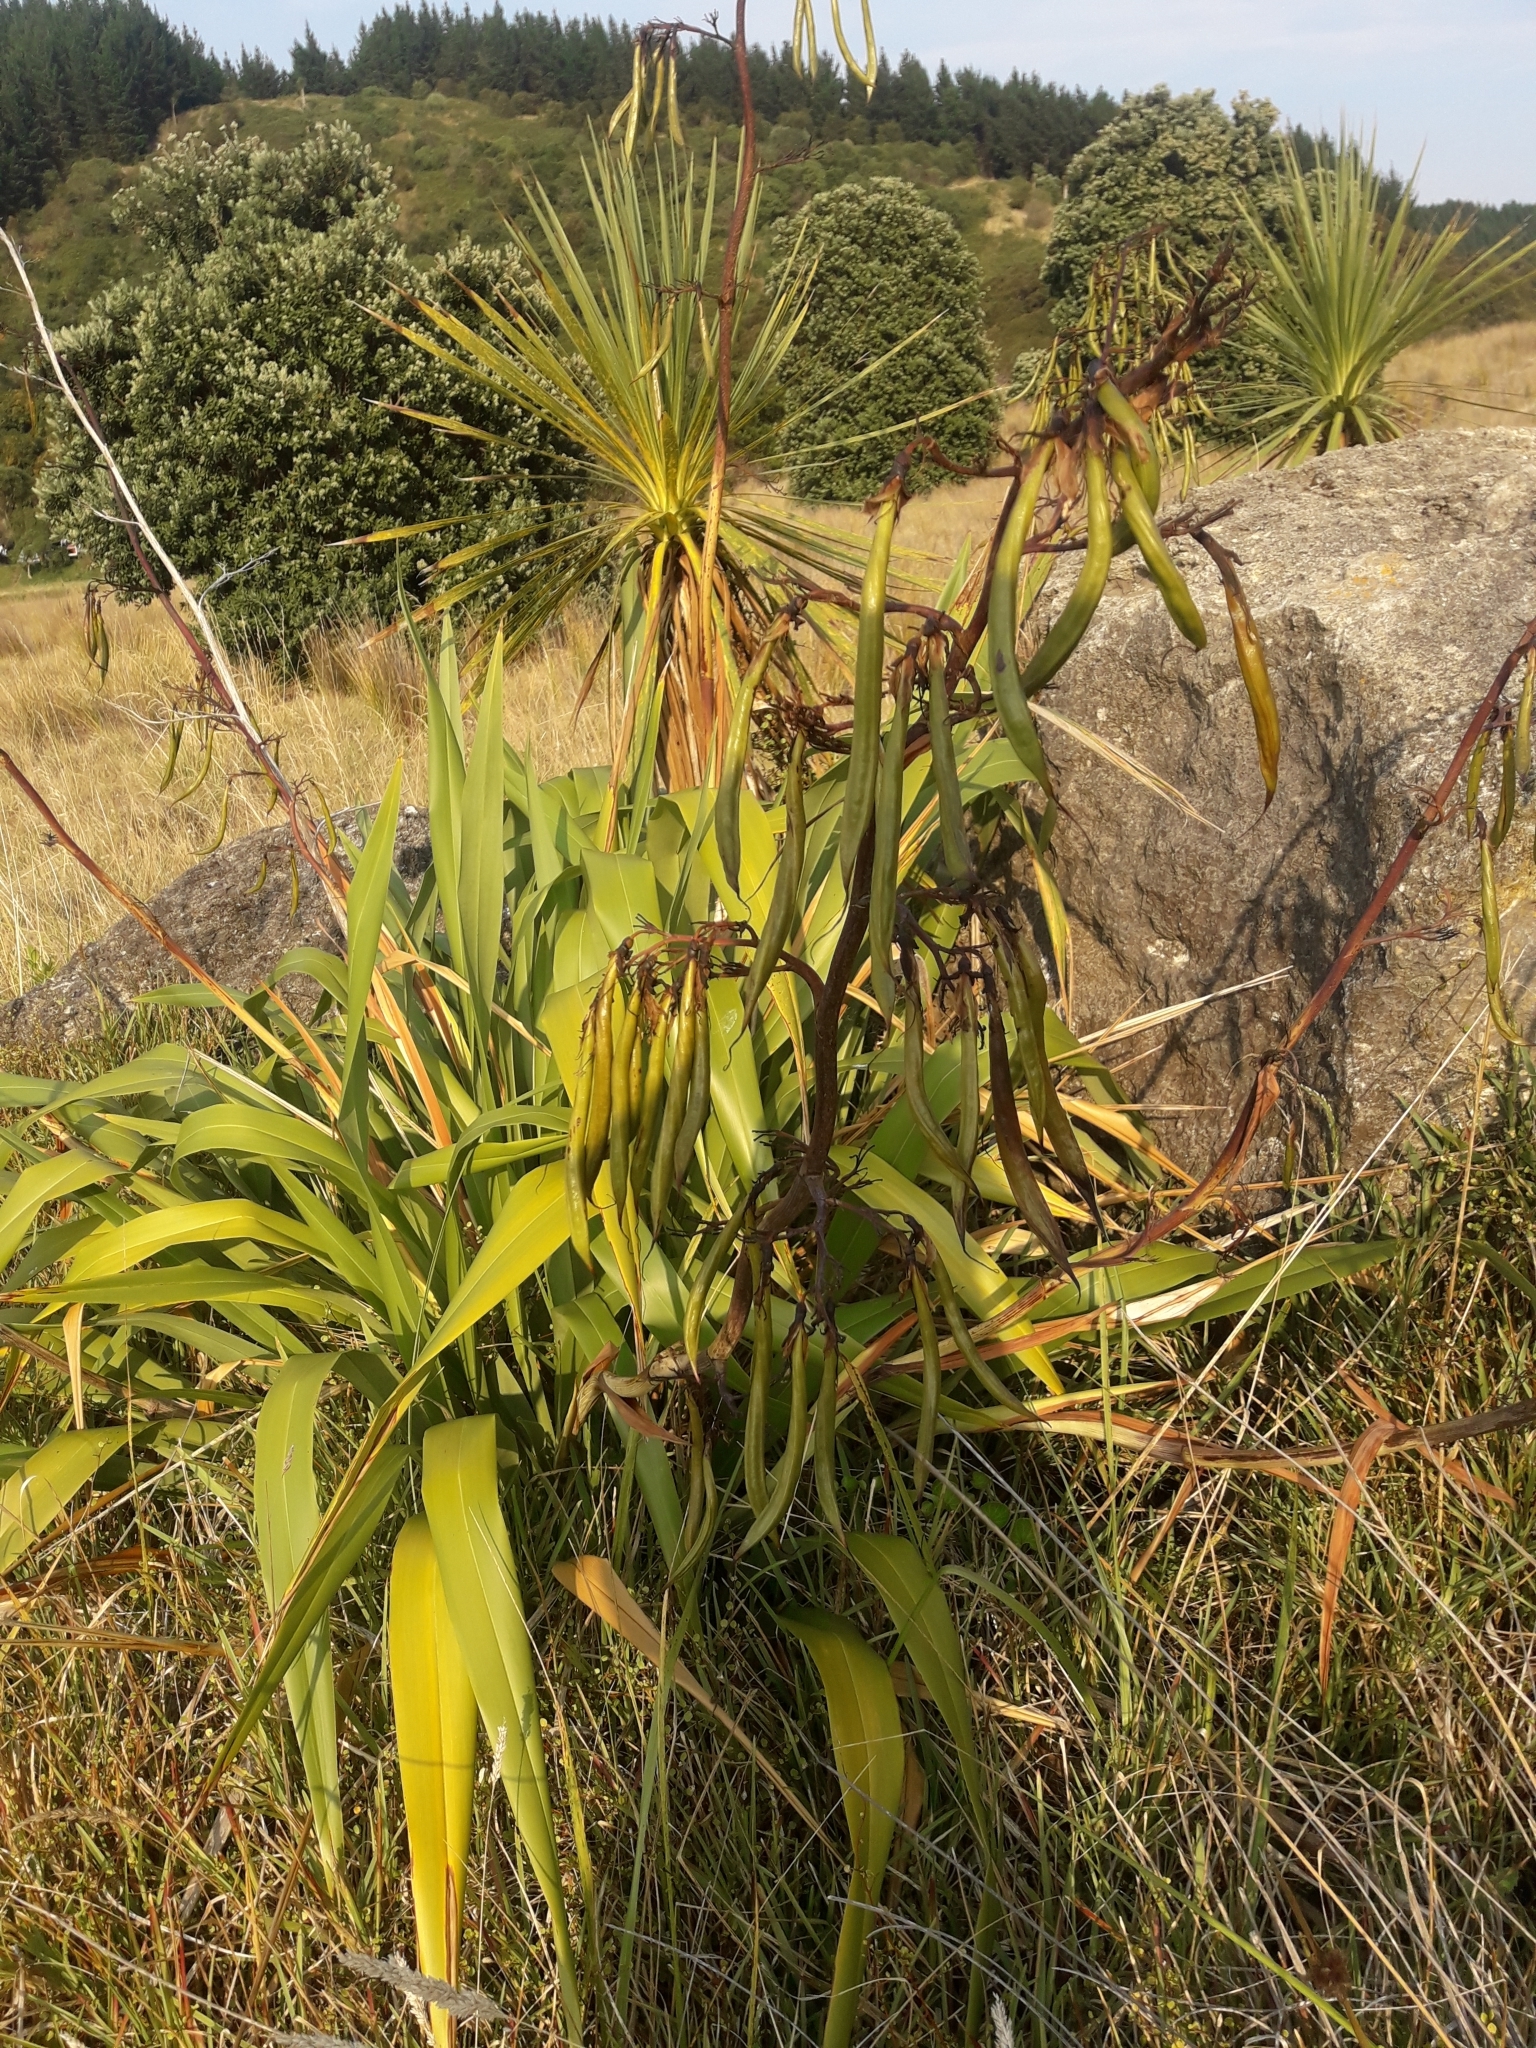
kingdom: Plantae
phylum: Tracheophyta
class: Liliopsida
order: Asparagales
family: Asphodelaceae
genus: Phormium
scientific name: Phormium colensoi
